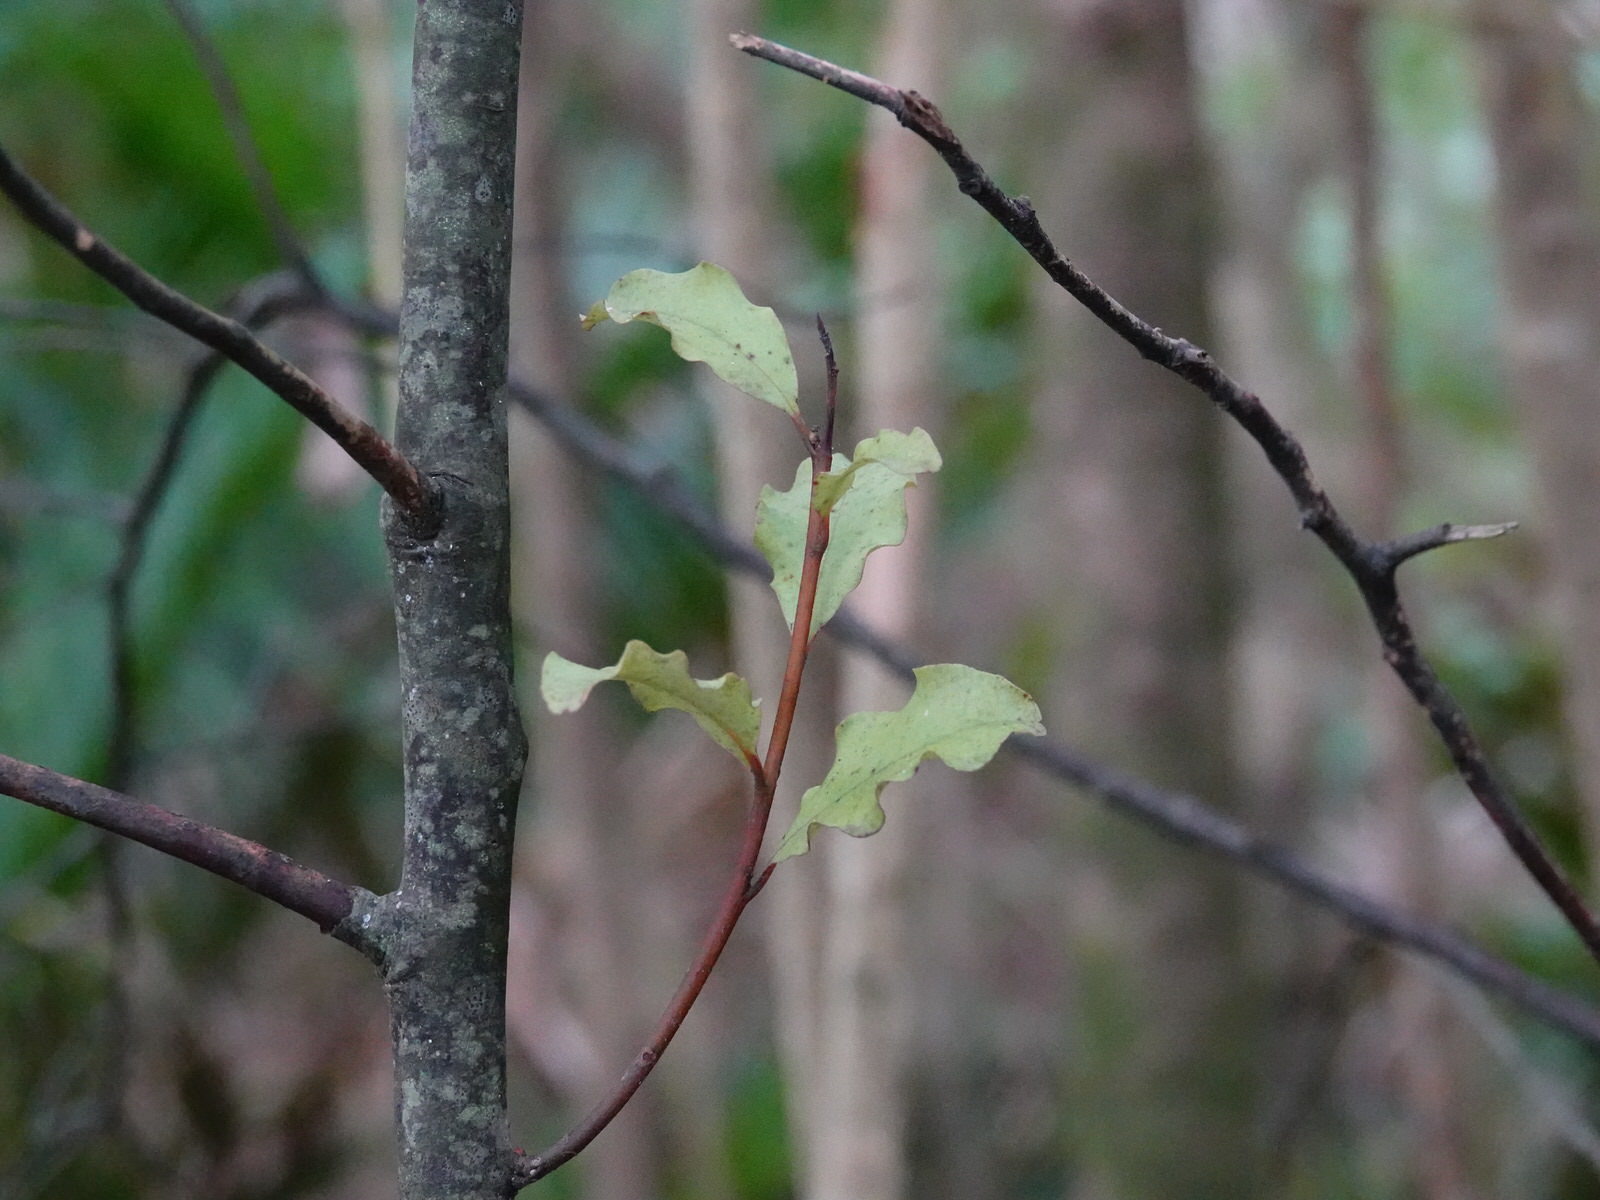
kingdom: Plantae
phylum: Tracheophyta
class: Magnoliopsida
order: Ericales
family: Primulaceae
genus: Myrsine
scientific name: Myrsine australis
